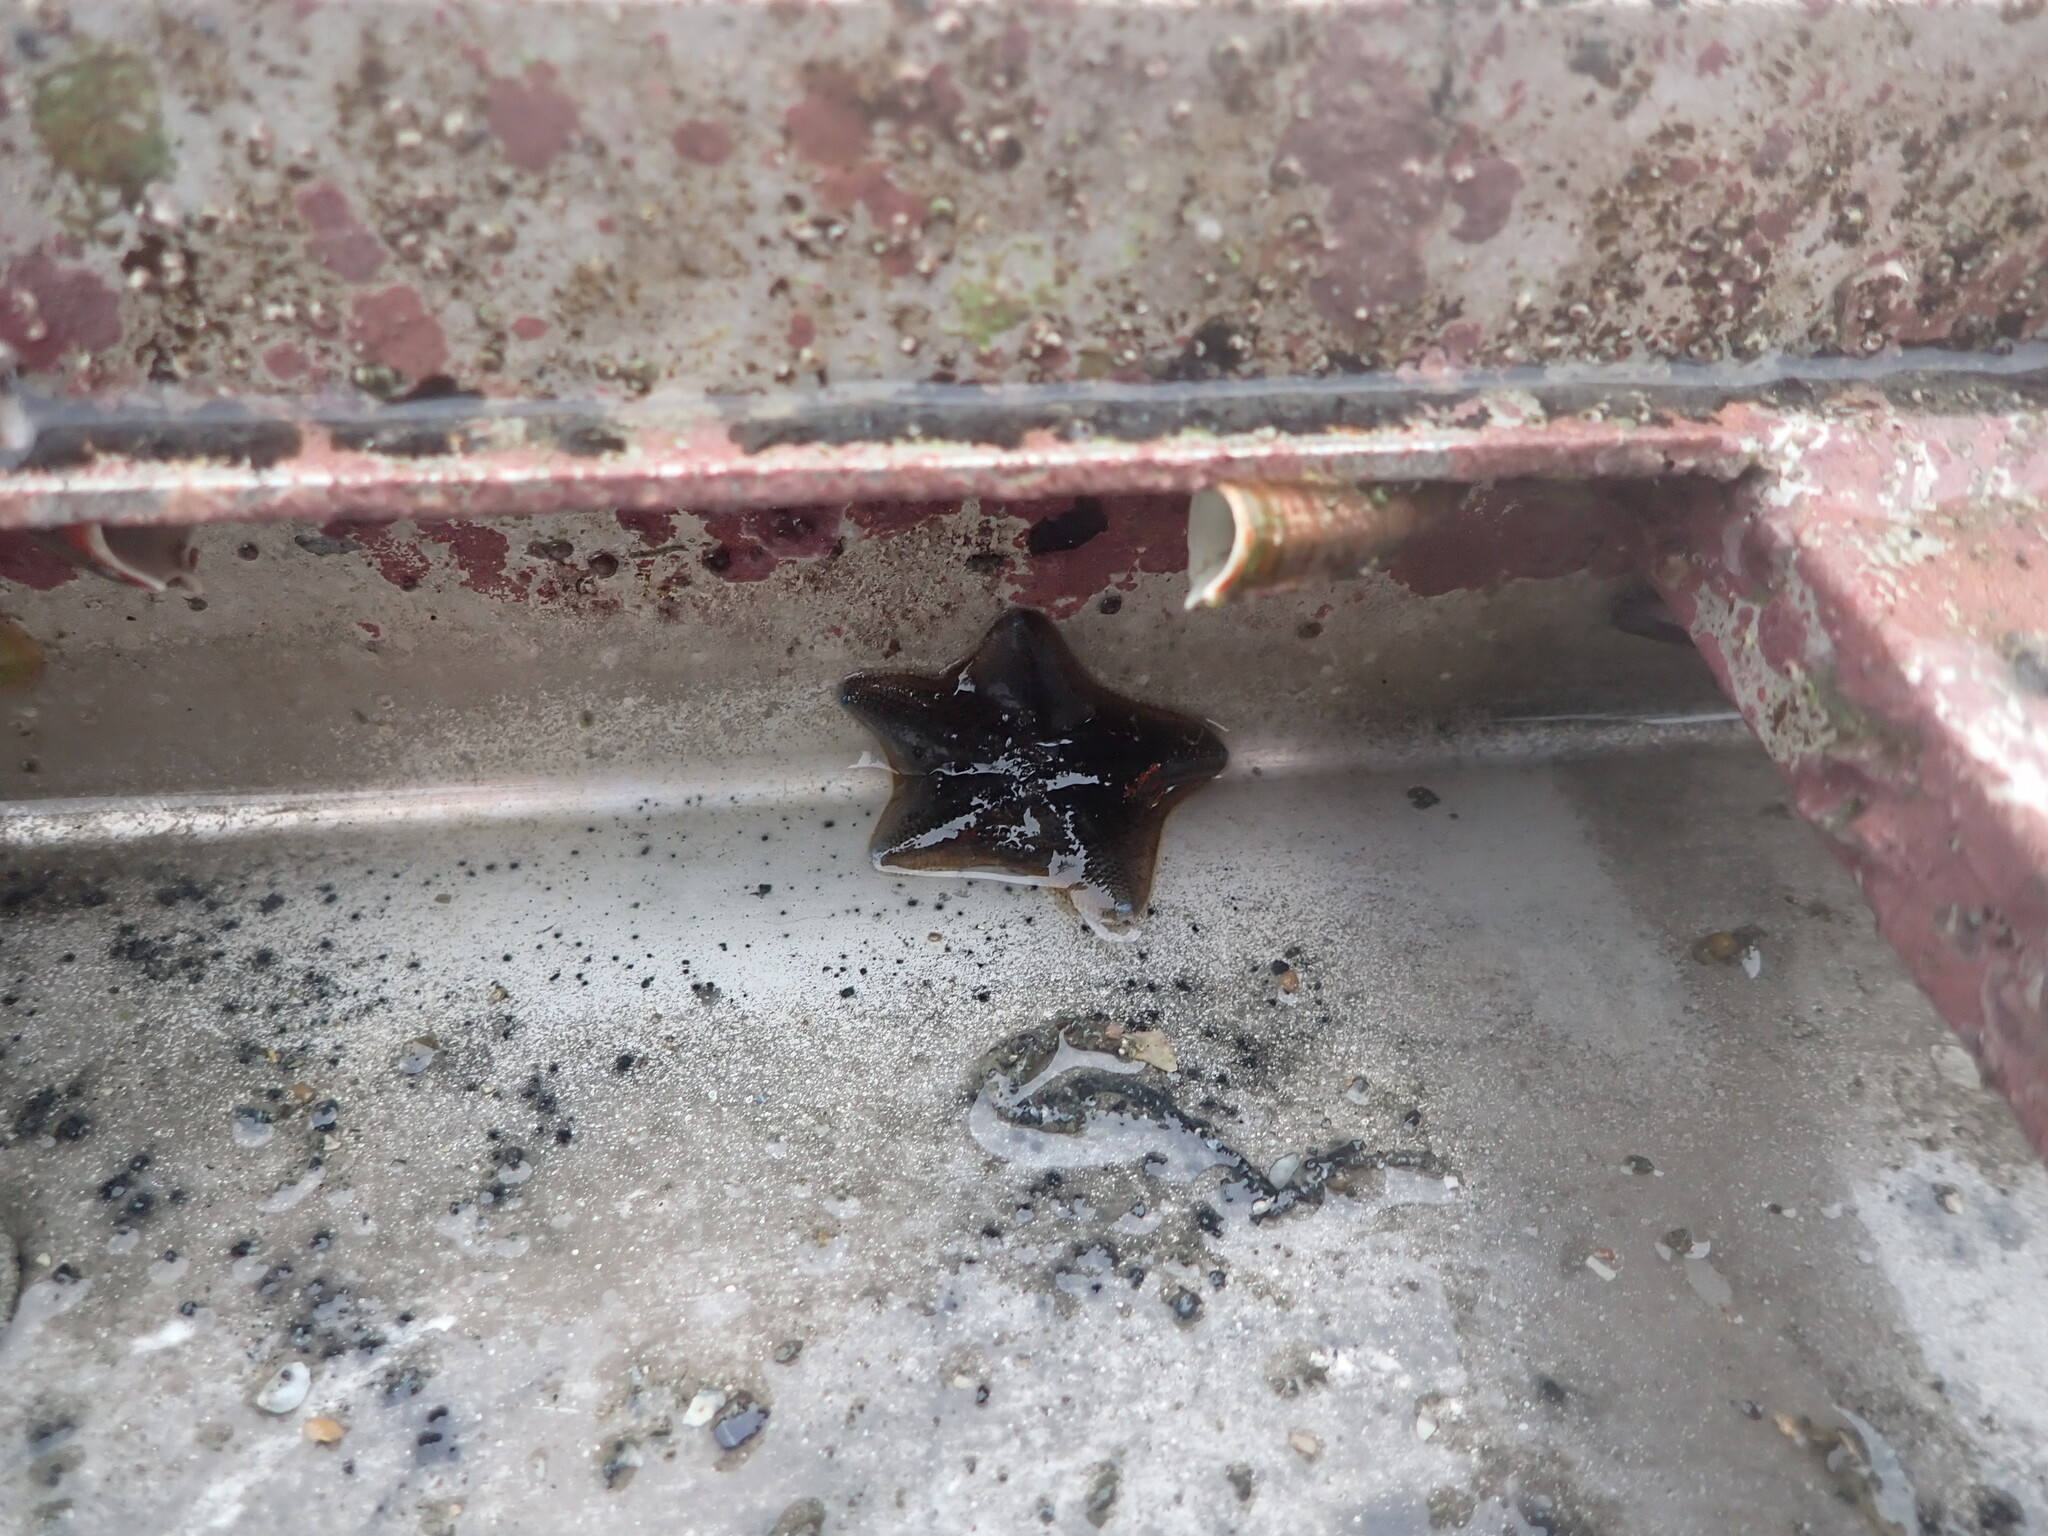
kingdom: Animalia
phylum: Echinodermata
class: Asteroidea
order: Valvatida
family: Asterinidae
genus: Patiriella
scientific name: Patiriella regularis
